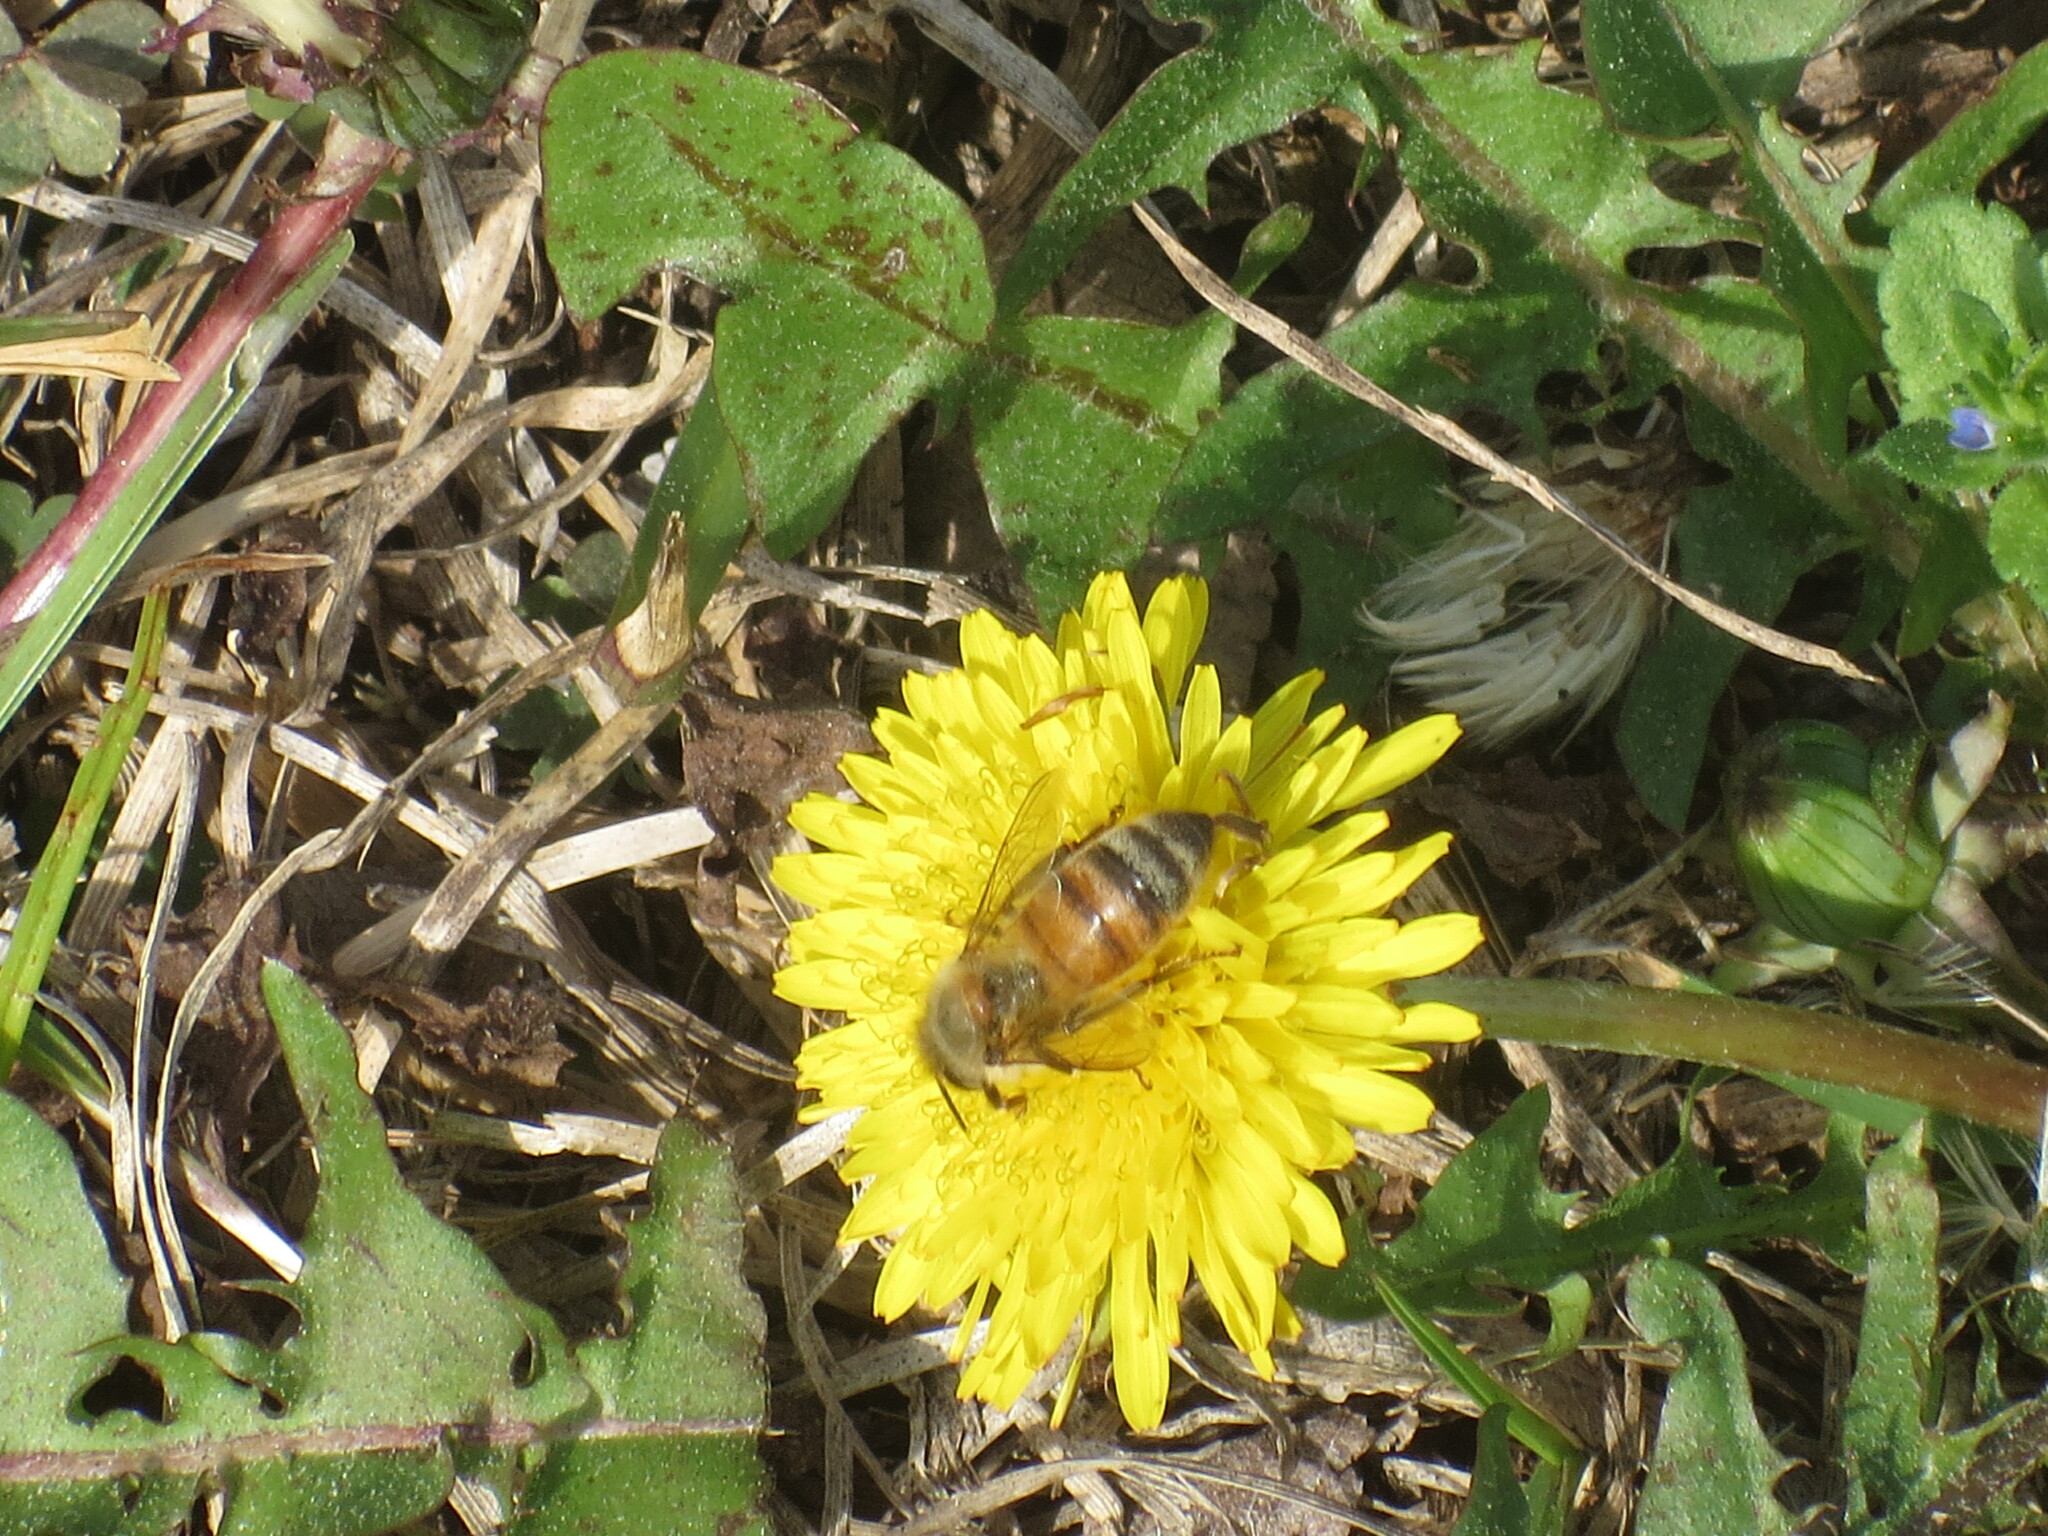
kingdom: Plantae
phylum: Tracheophyta
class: Magnoliopsida
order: Asterales
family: Asteraceae
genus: Taraxacum
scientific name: Taraxacum
